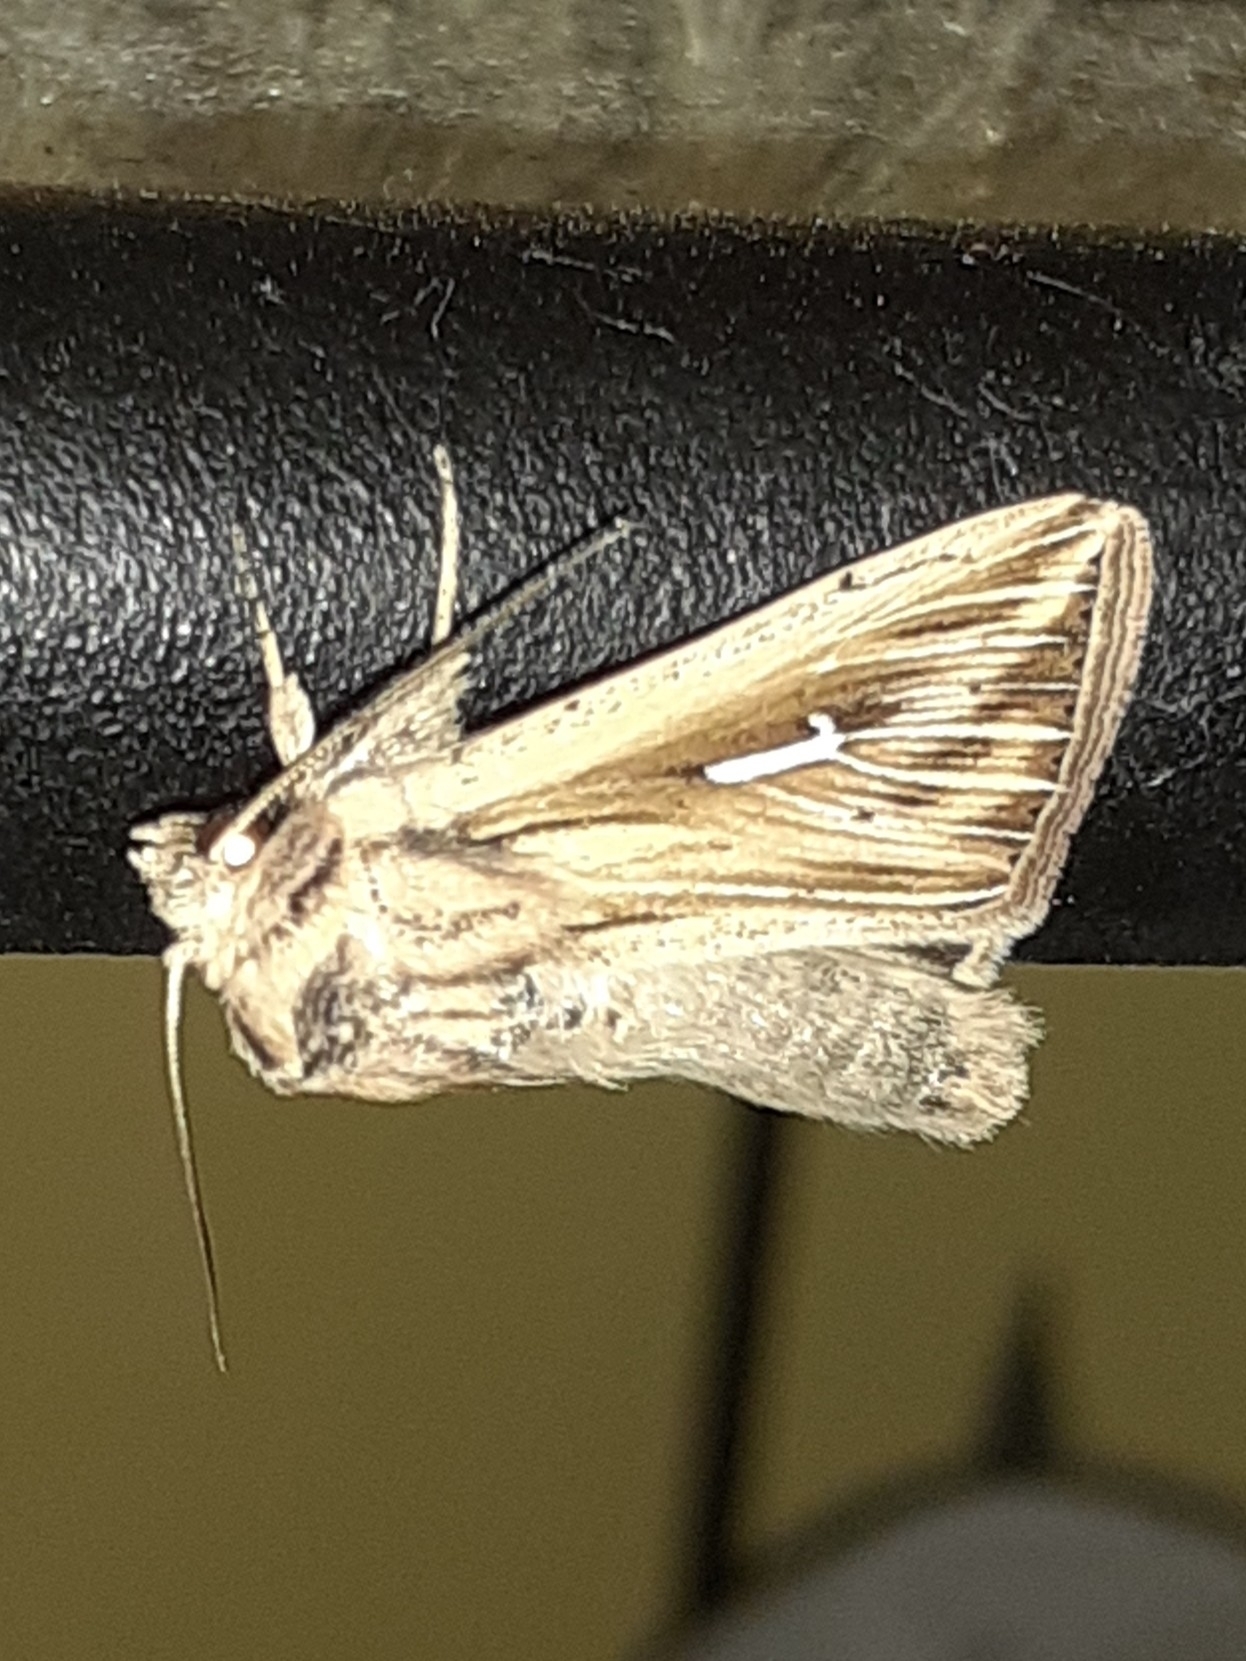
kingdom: Animalia
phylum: Arthropoda
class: Insecta
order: Lepidoptera
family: Noctuidae
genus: Mythimna
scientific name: Mythimna l-album
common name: L-album wainscot
